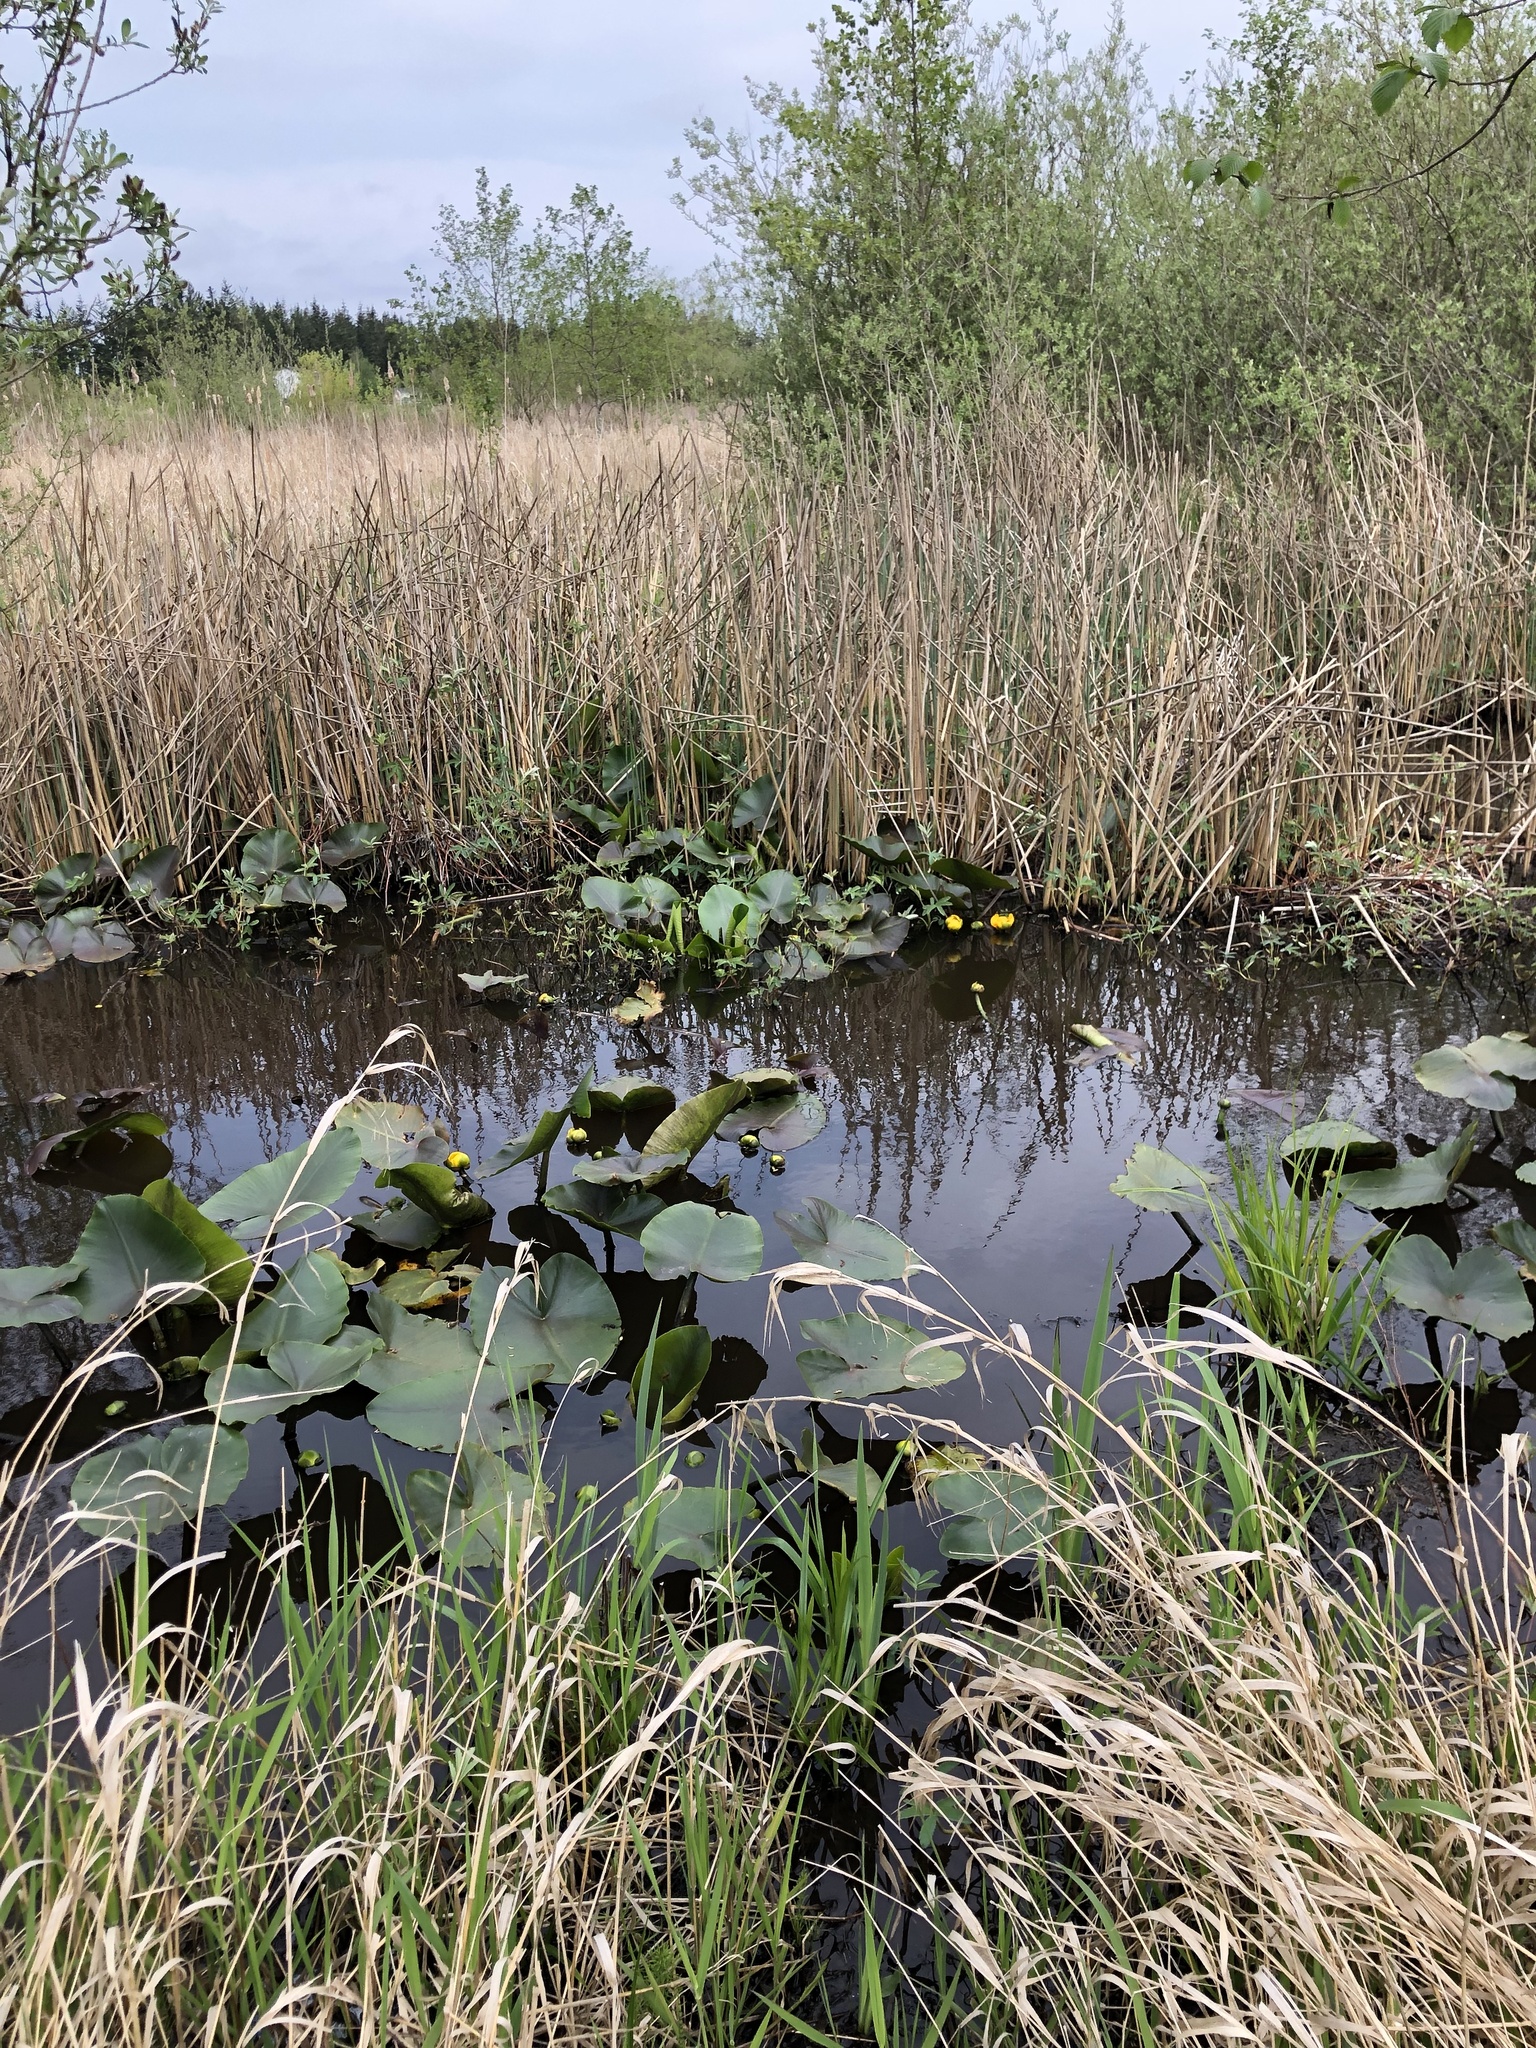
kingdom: Plantae
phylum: Tracheophyta
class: Magnoliopsida
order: Nymphaeales
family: Nymphaeaceae
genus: Nuphar
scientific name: Nuphar polysepala
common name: Rocky mountain cow-lily
